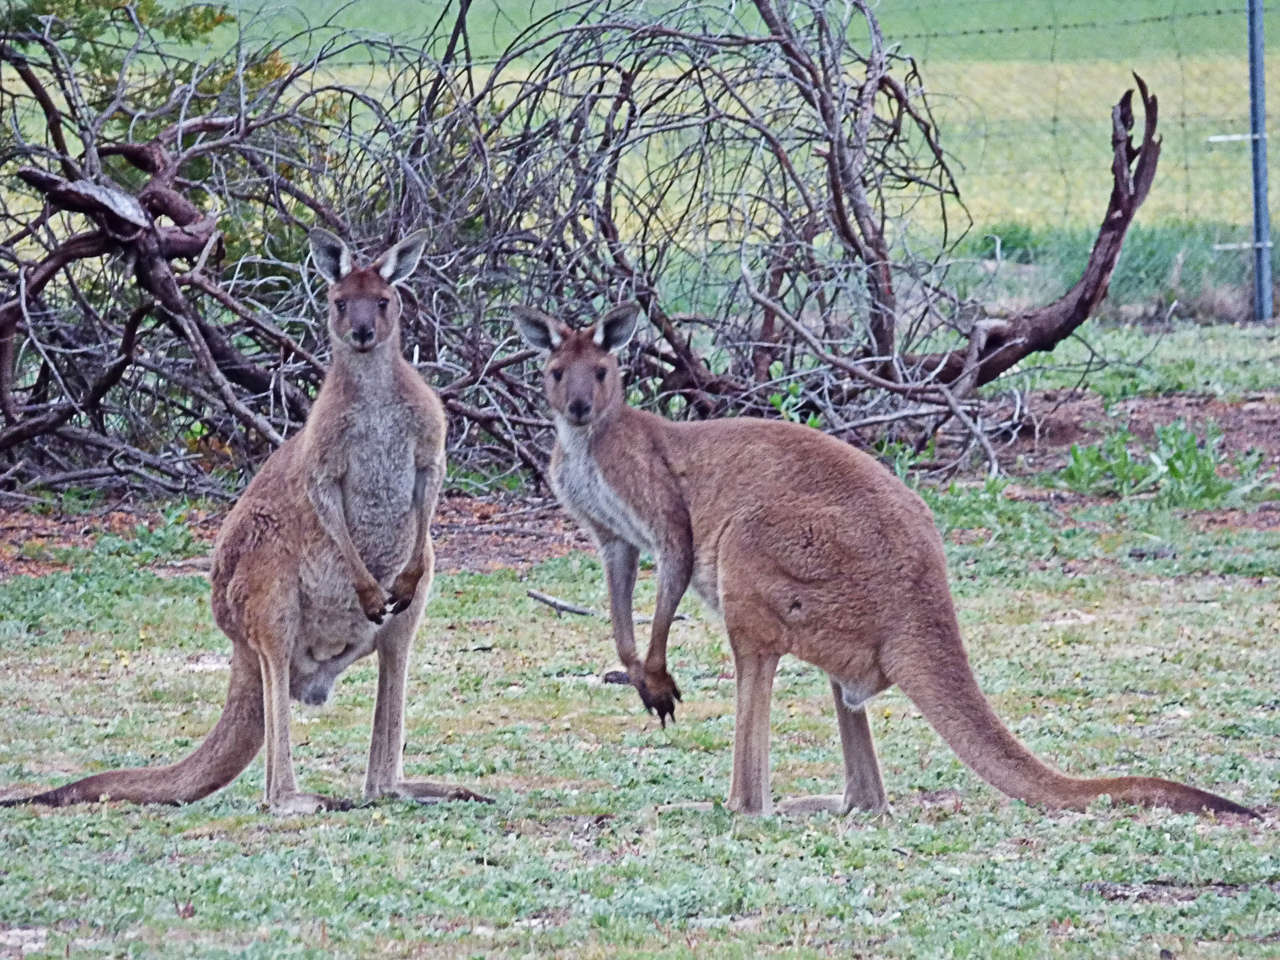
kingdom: Animalia
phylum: Chordata
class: Mammalia
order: Diprotodontia
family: Macropodidae
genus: Macropus
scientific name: Macropus fuliginosus
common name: Western grey kangaroo
